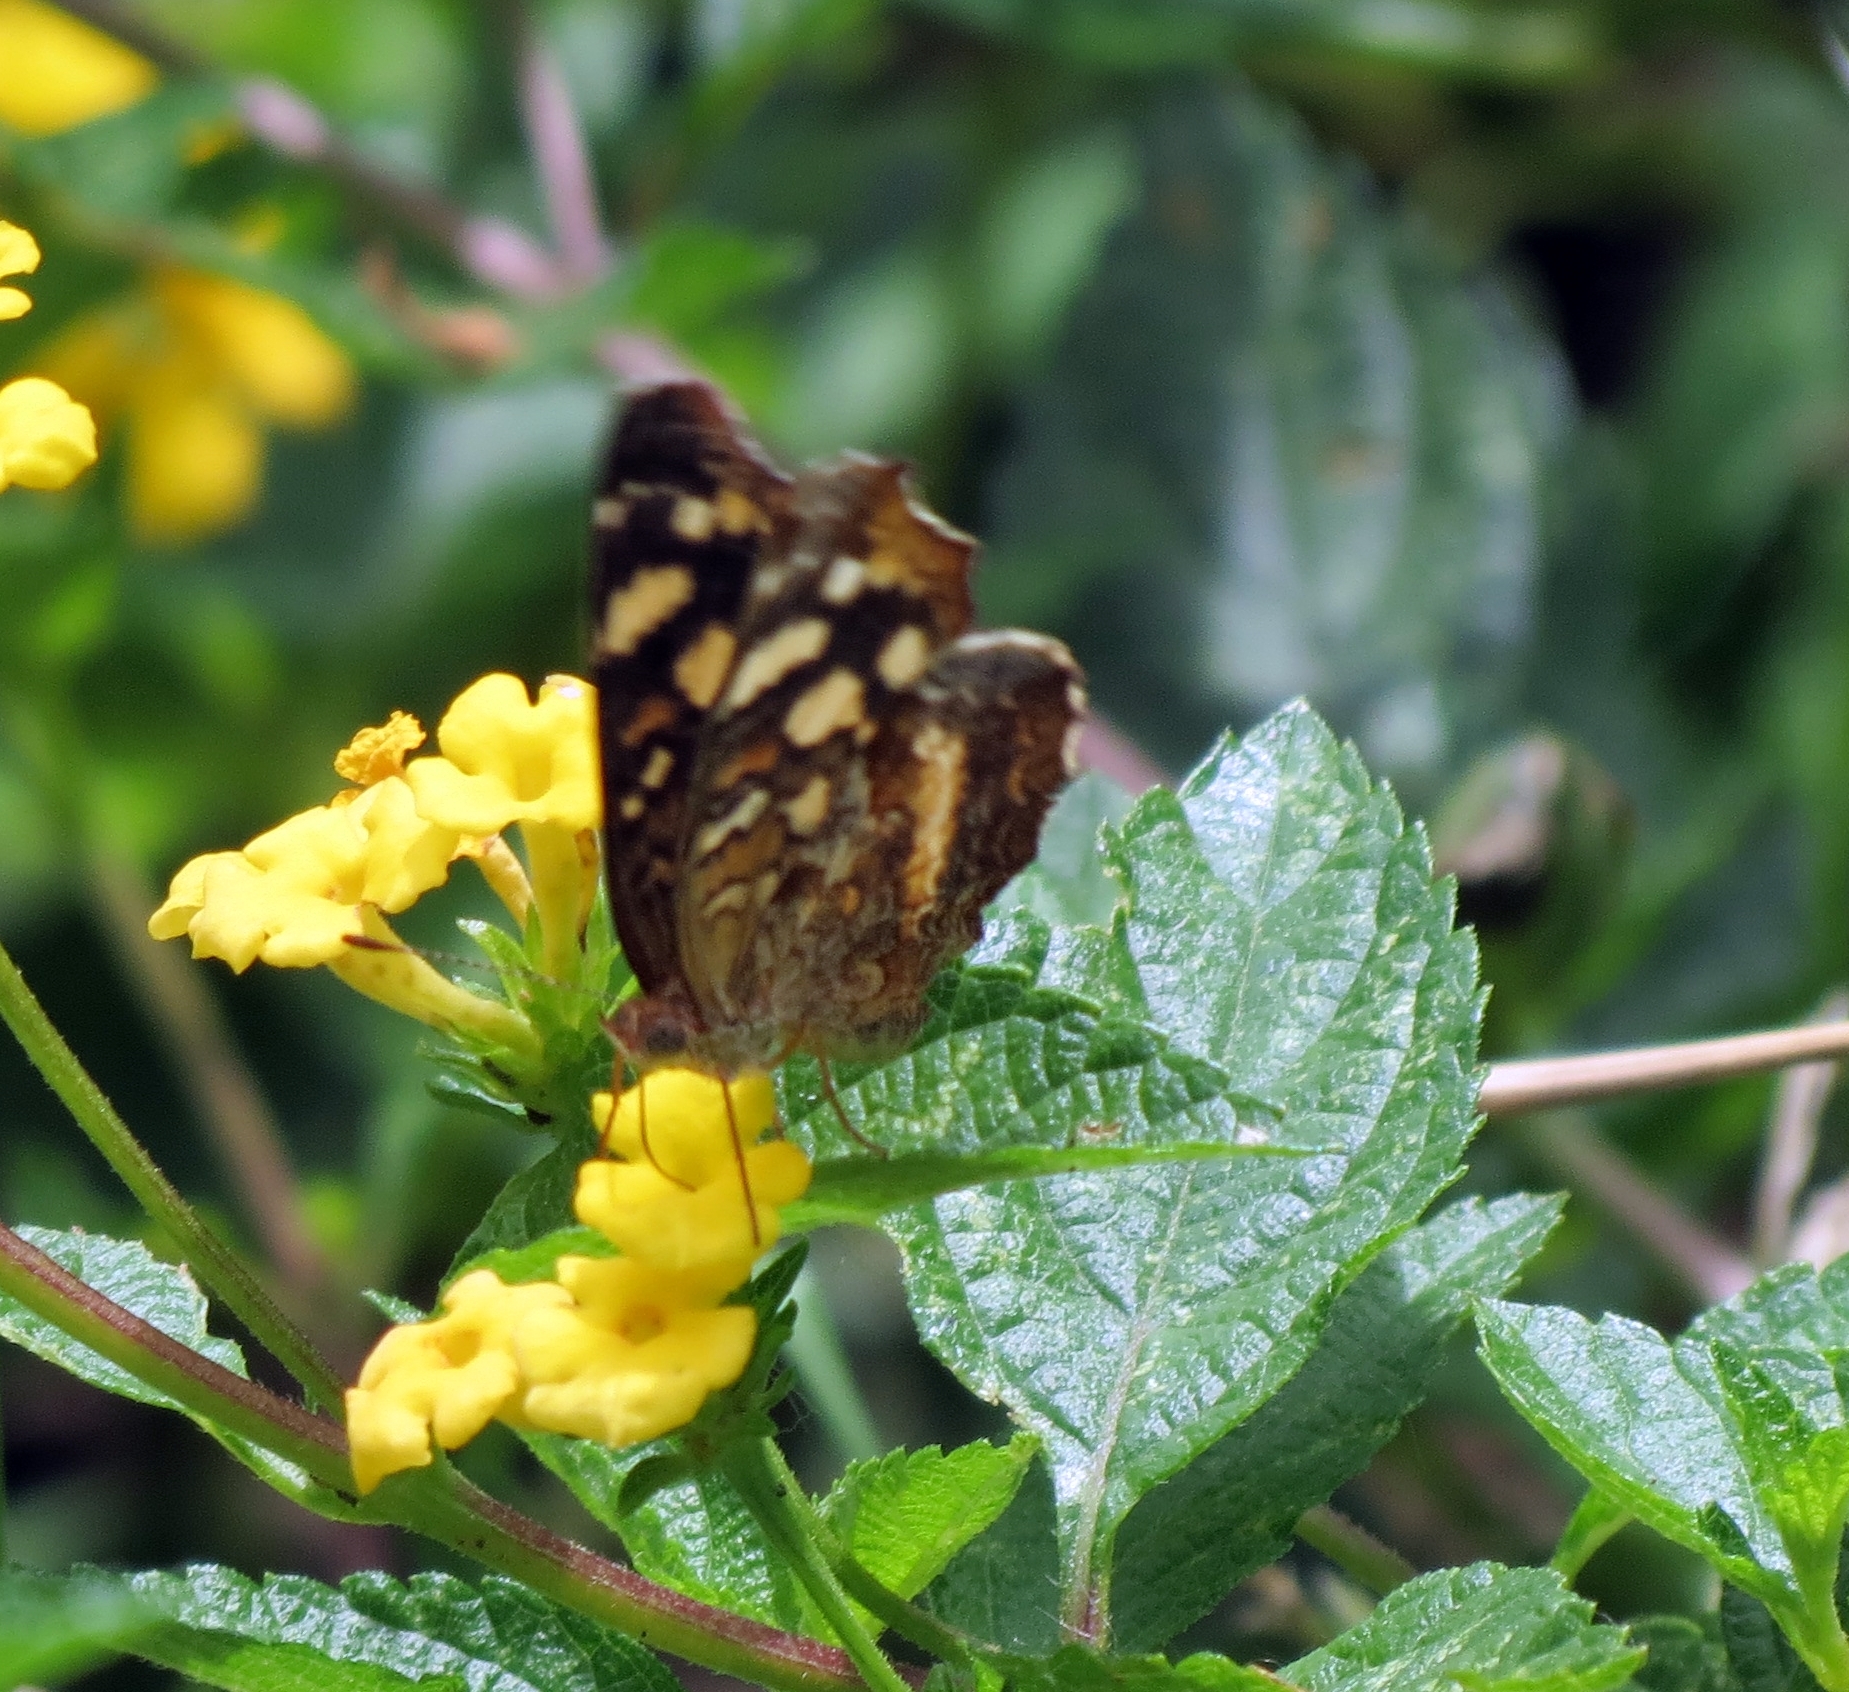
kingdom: Animalia
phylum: Arthropoda
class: Insecta
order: Lepidoptera
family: Nymphalidae
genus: Anthanassa
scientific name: Anthanassa drusilla
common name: Orange-patched crescent
